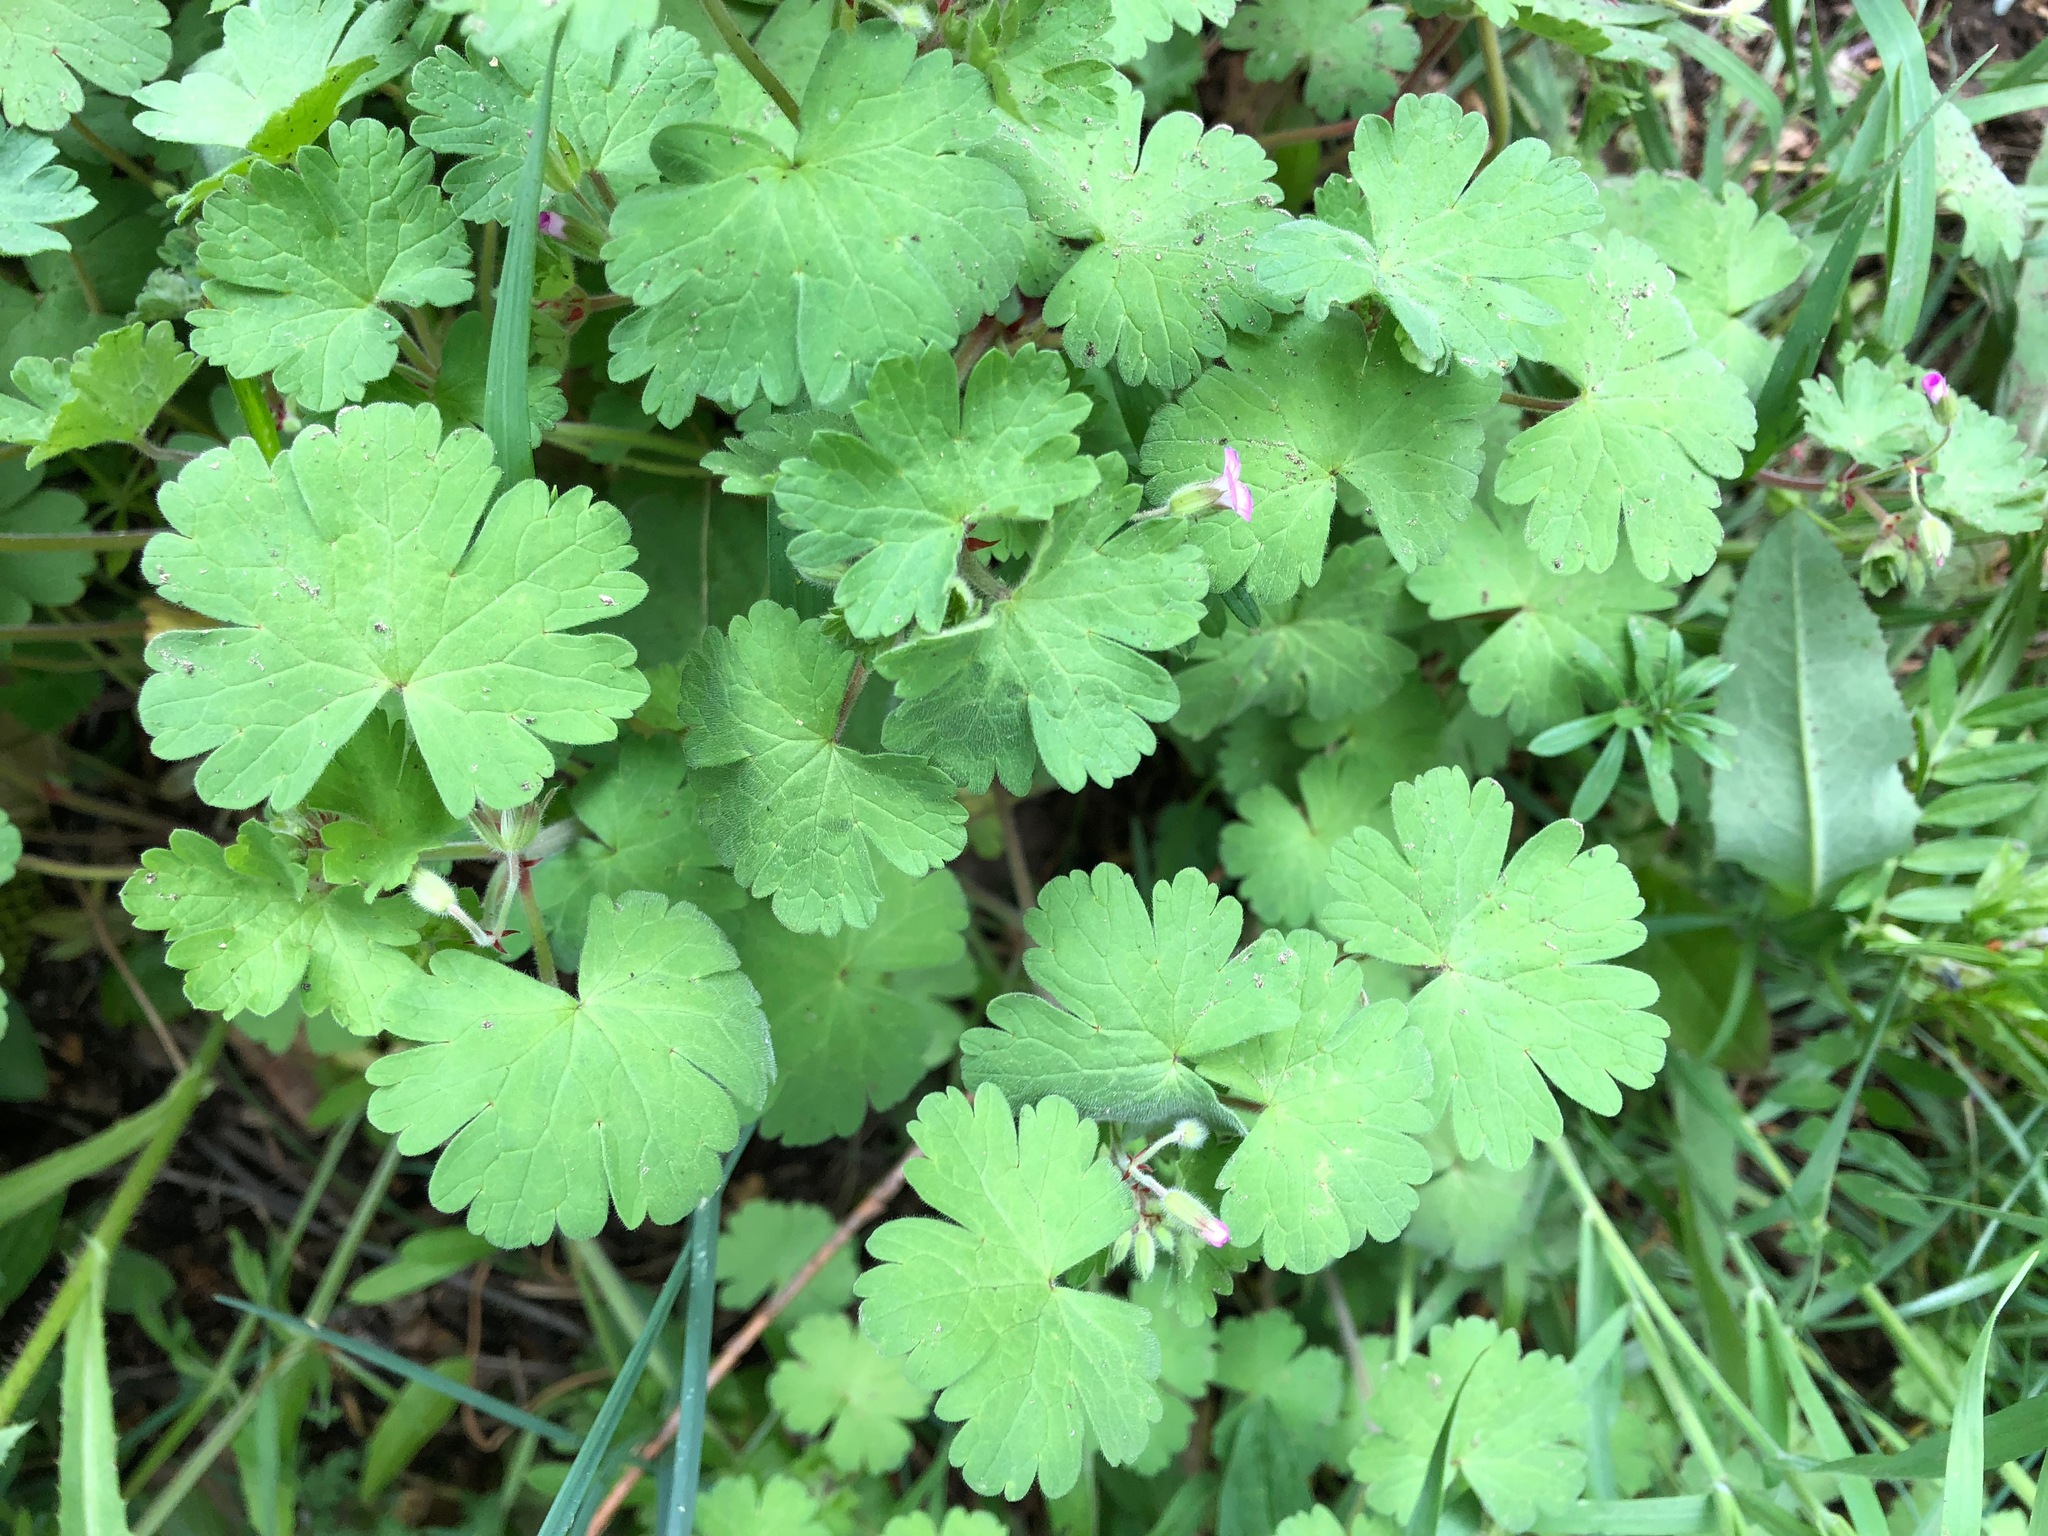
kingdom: Plantae
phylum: Tracheophyta
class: Magnoliopsida
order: Geraniales
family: Geraniaceae
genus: Geranium
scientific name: Geranium molle
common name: Dove's-foot crane's-bill
